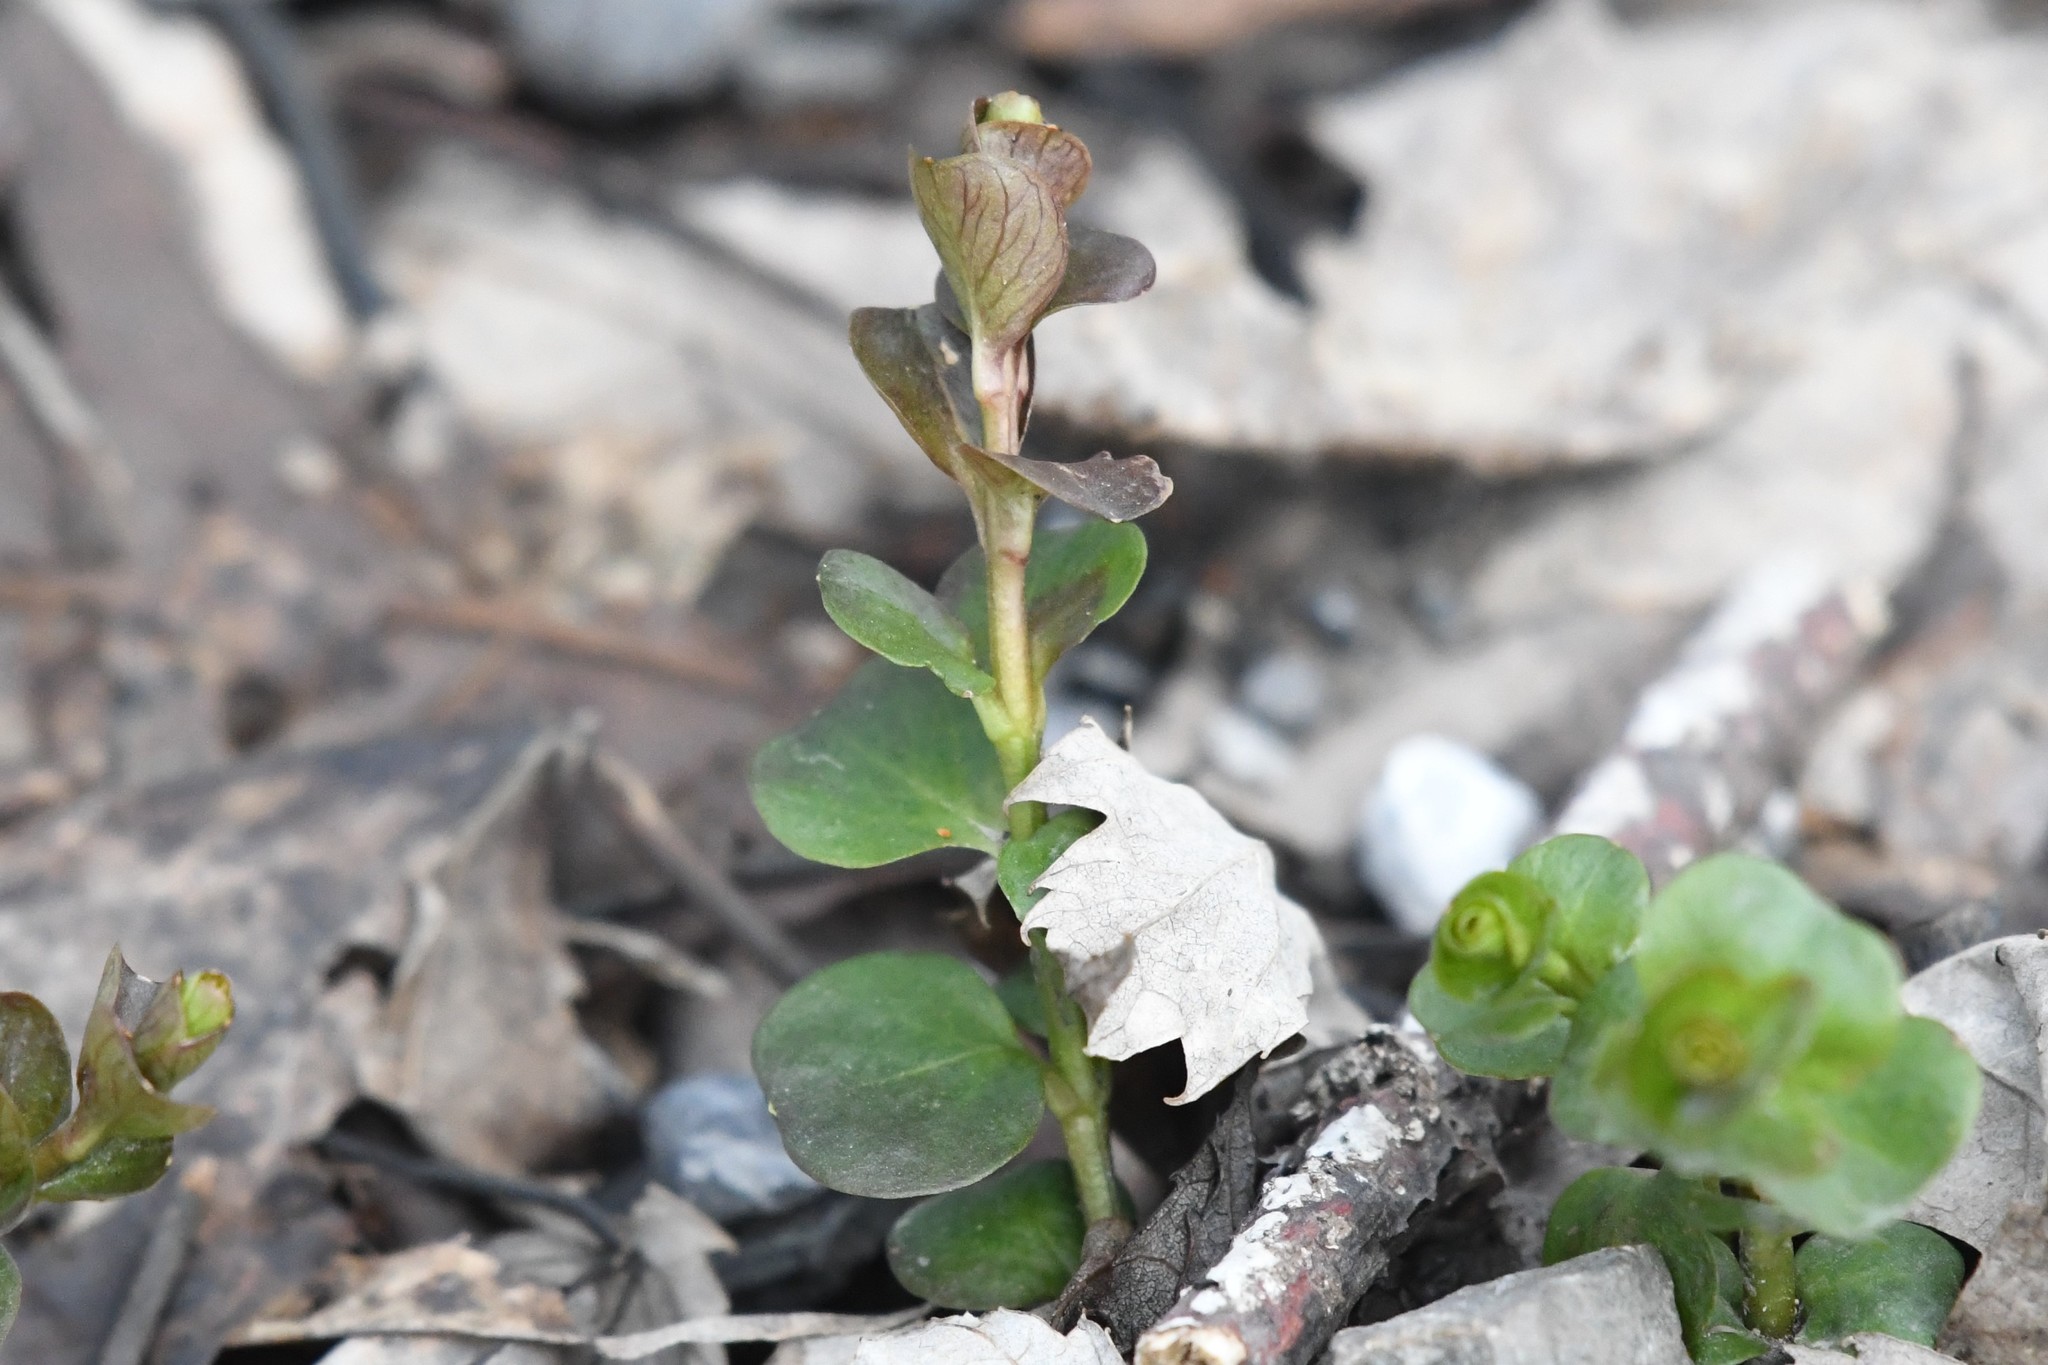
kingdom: Plantae
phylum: Tracheophyta
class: Magnoliopsida
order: Ericales
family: Primulaceae
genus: Lysimachia
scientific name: Lysimachia nummularia
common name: Moneywort
